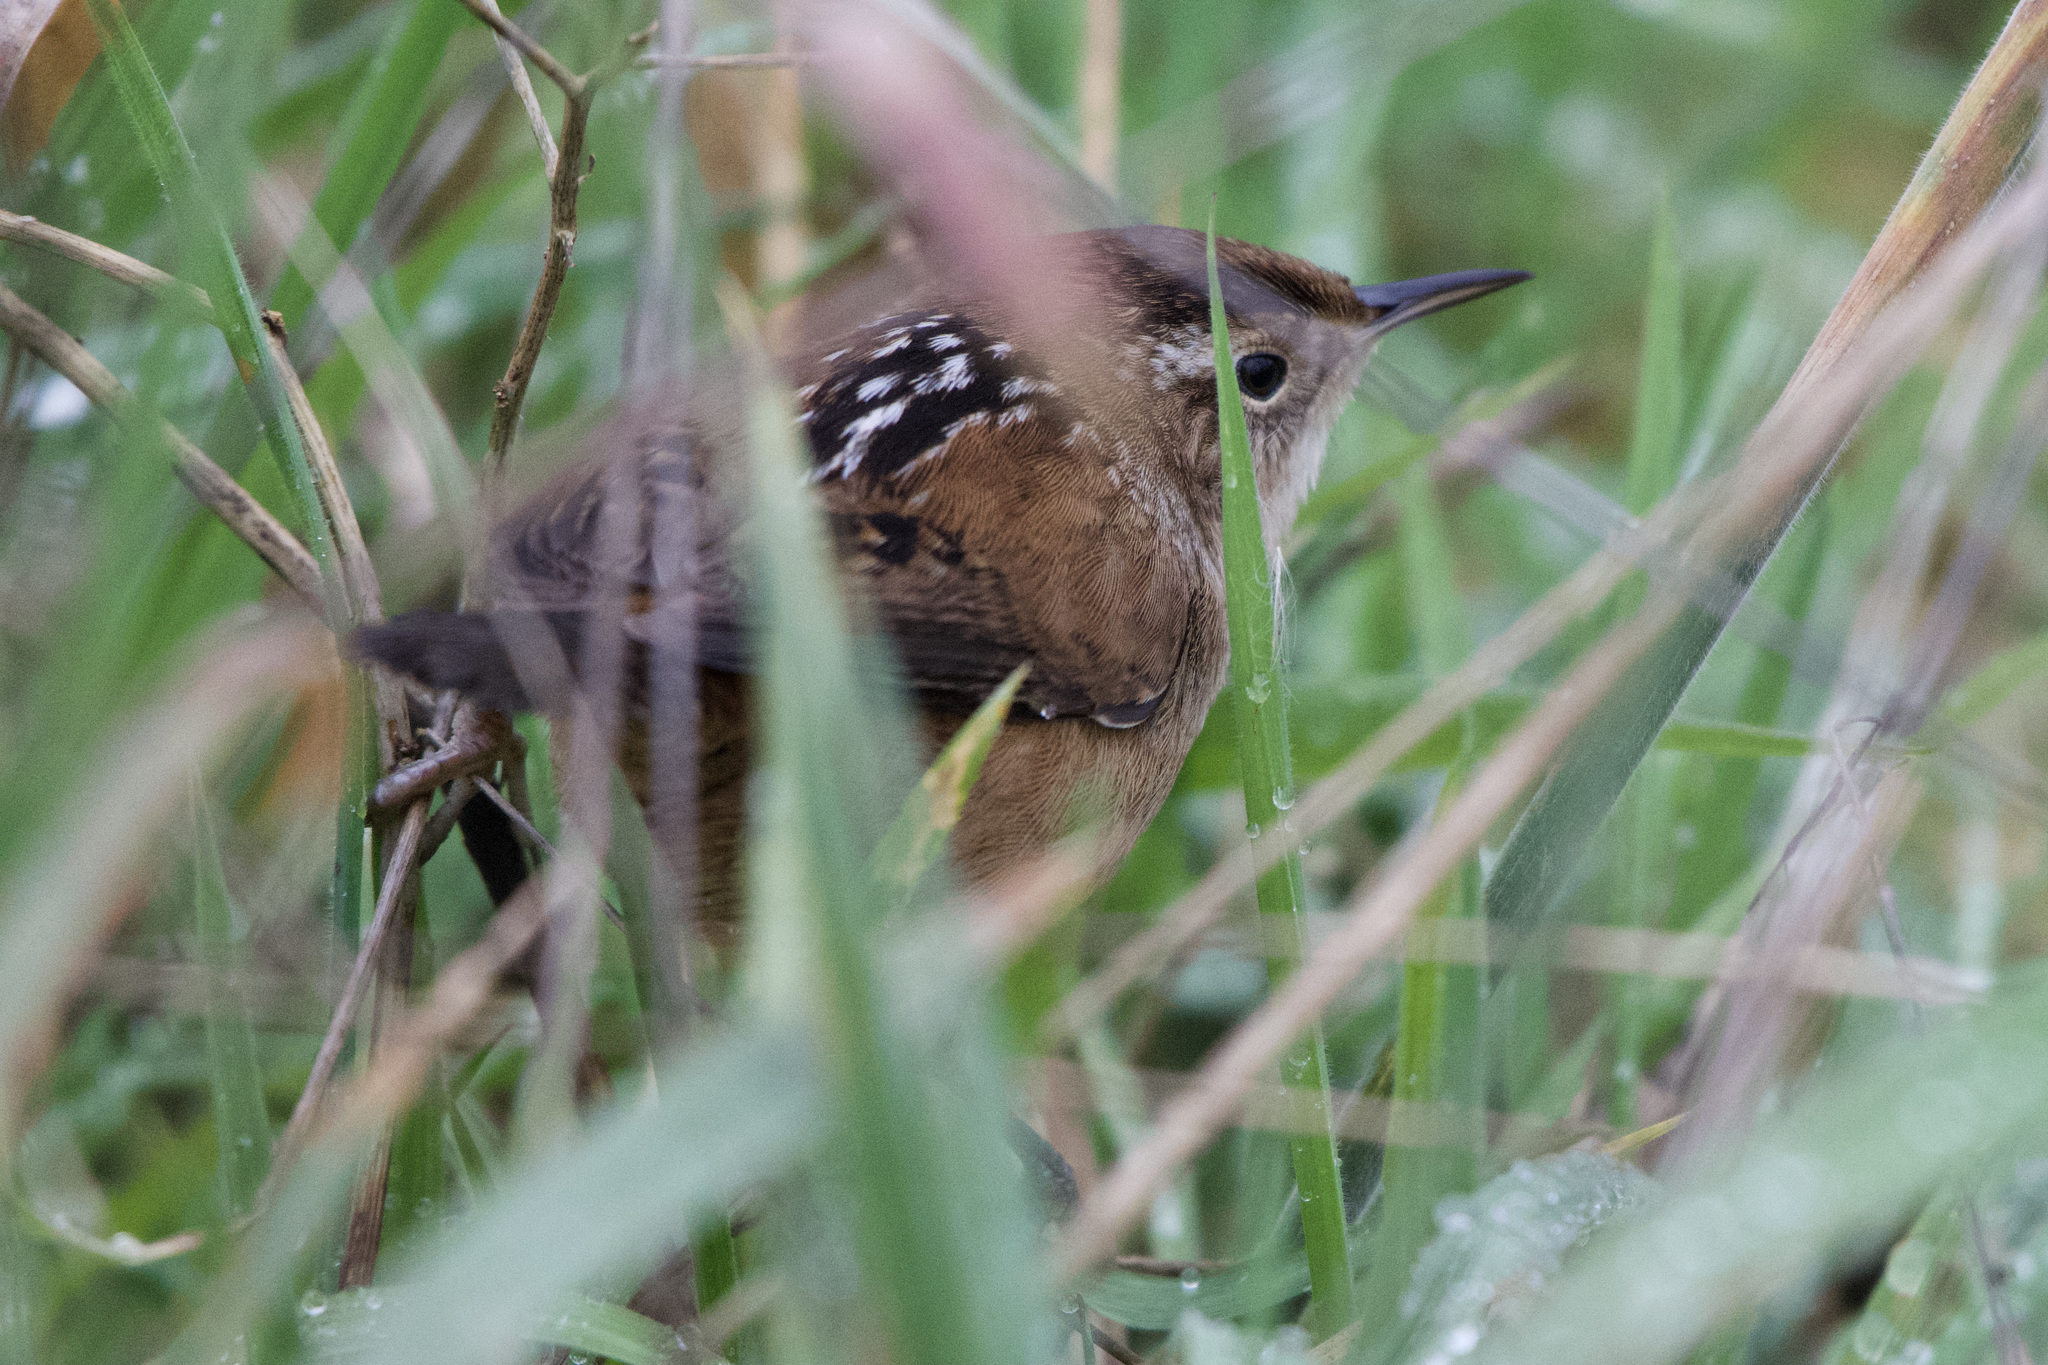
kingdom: Animalia
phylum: Chordata
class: Aves
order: Passeriformes
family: Troglodytidae
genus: Cistothorus
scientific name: Cistothorus palustris
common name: Marsh wren
